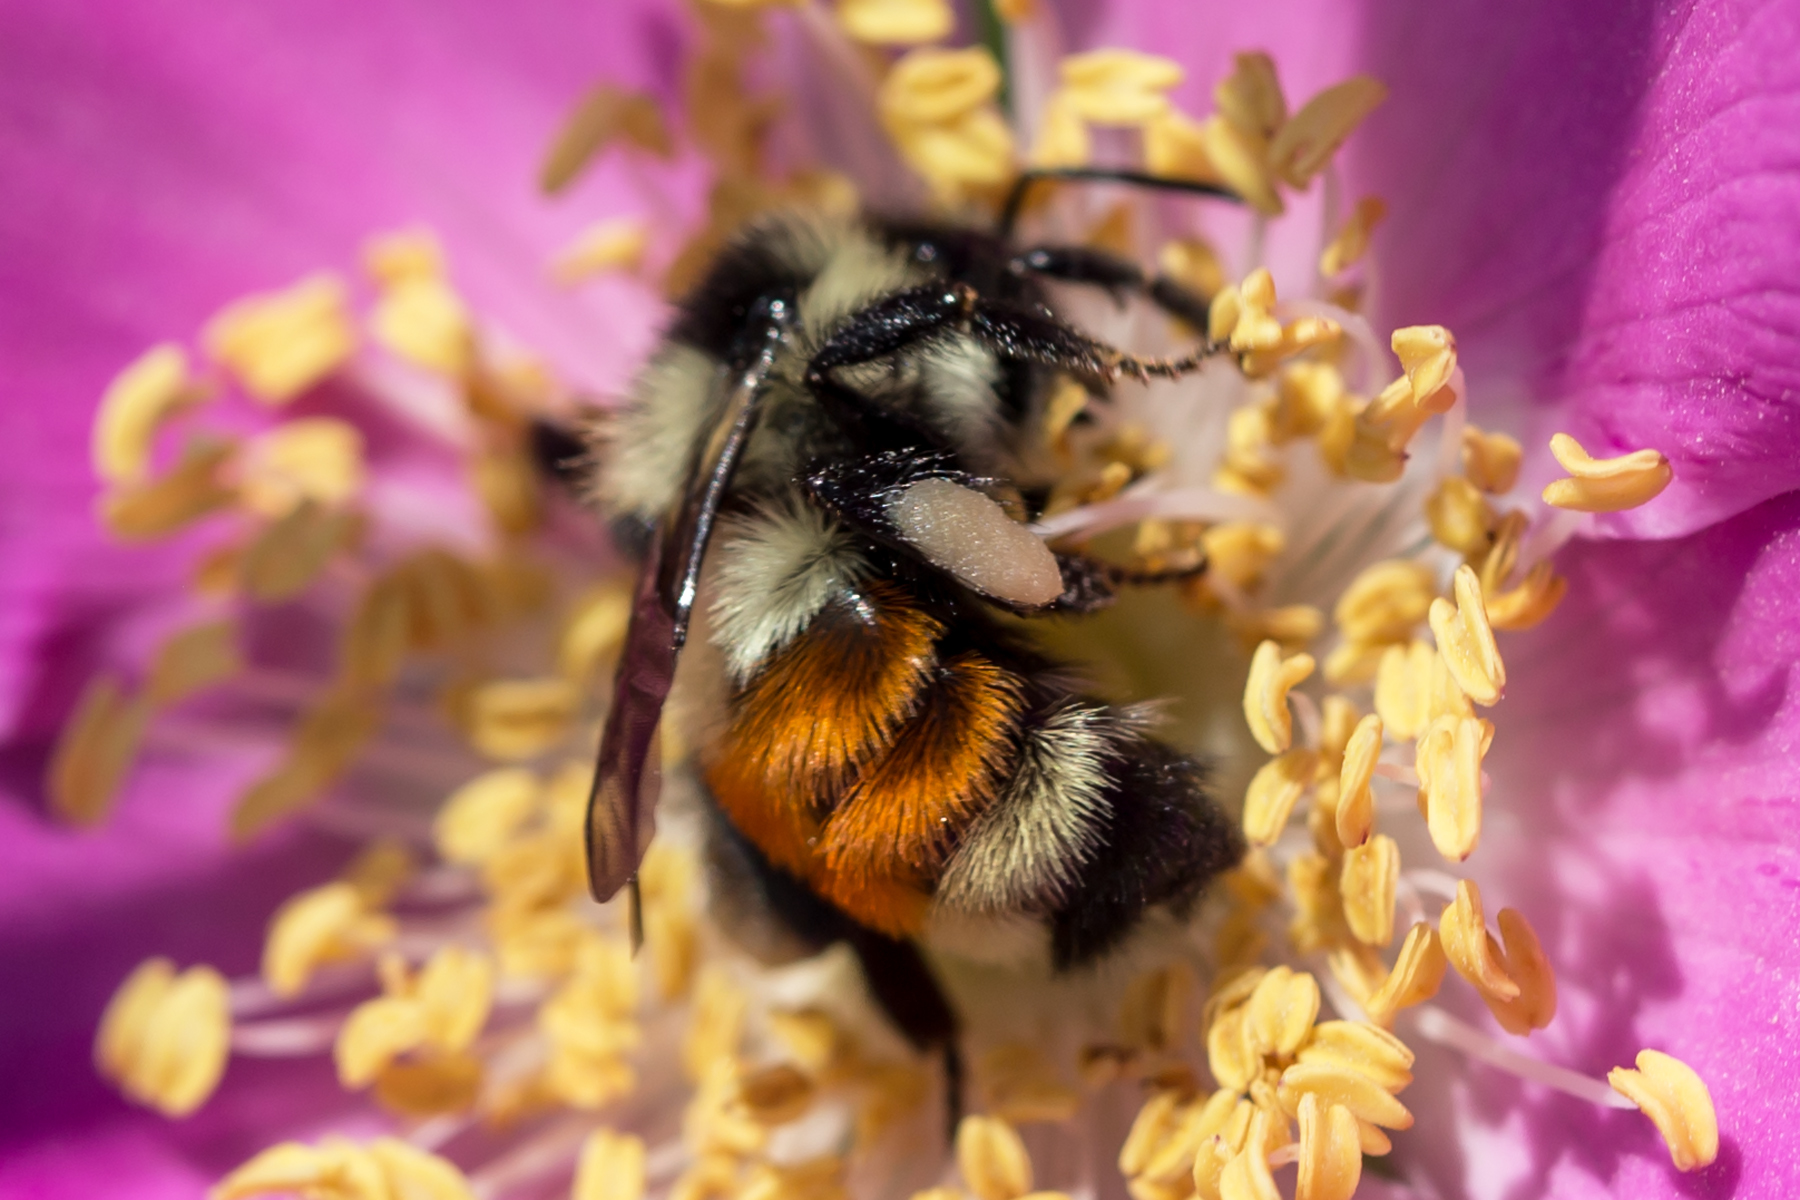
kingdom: Animalia
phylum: Arthropoda
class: Insecta
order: Hymenoptera
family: Apidae
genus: Bombus
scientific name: Bombus ternarius
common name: Tri-colored bumble bee
